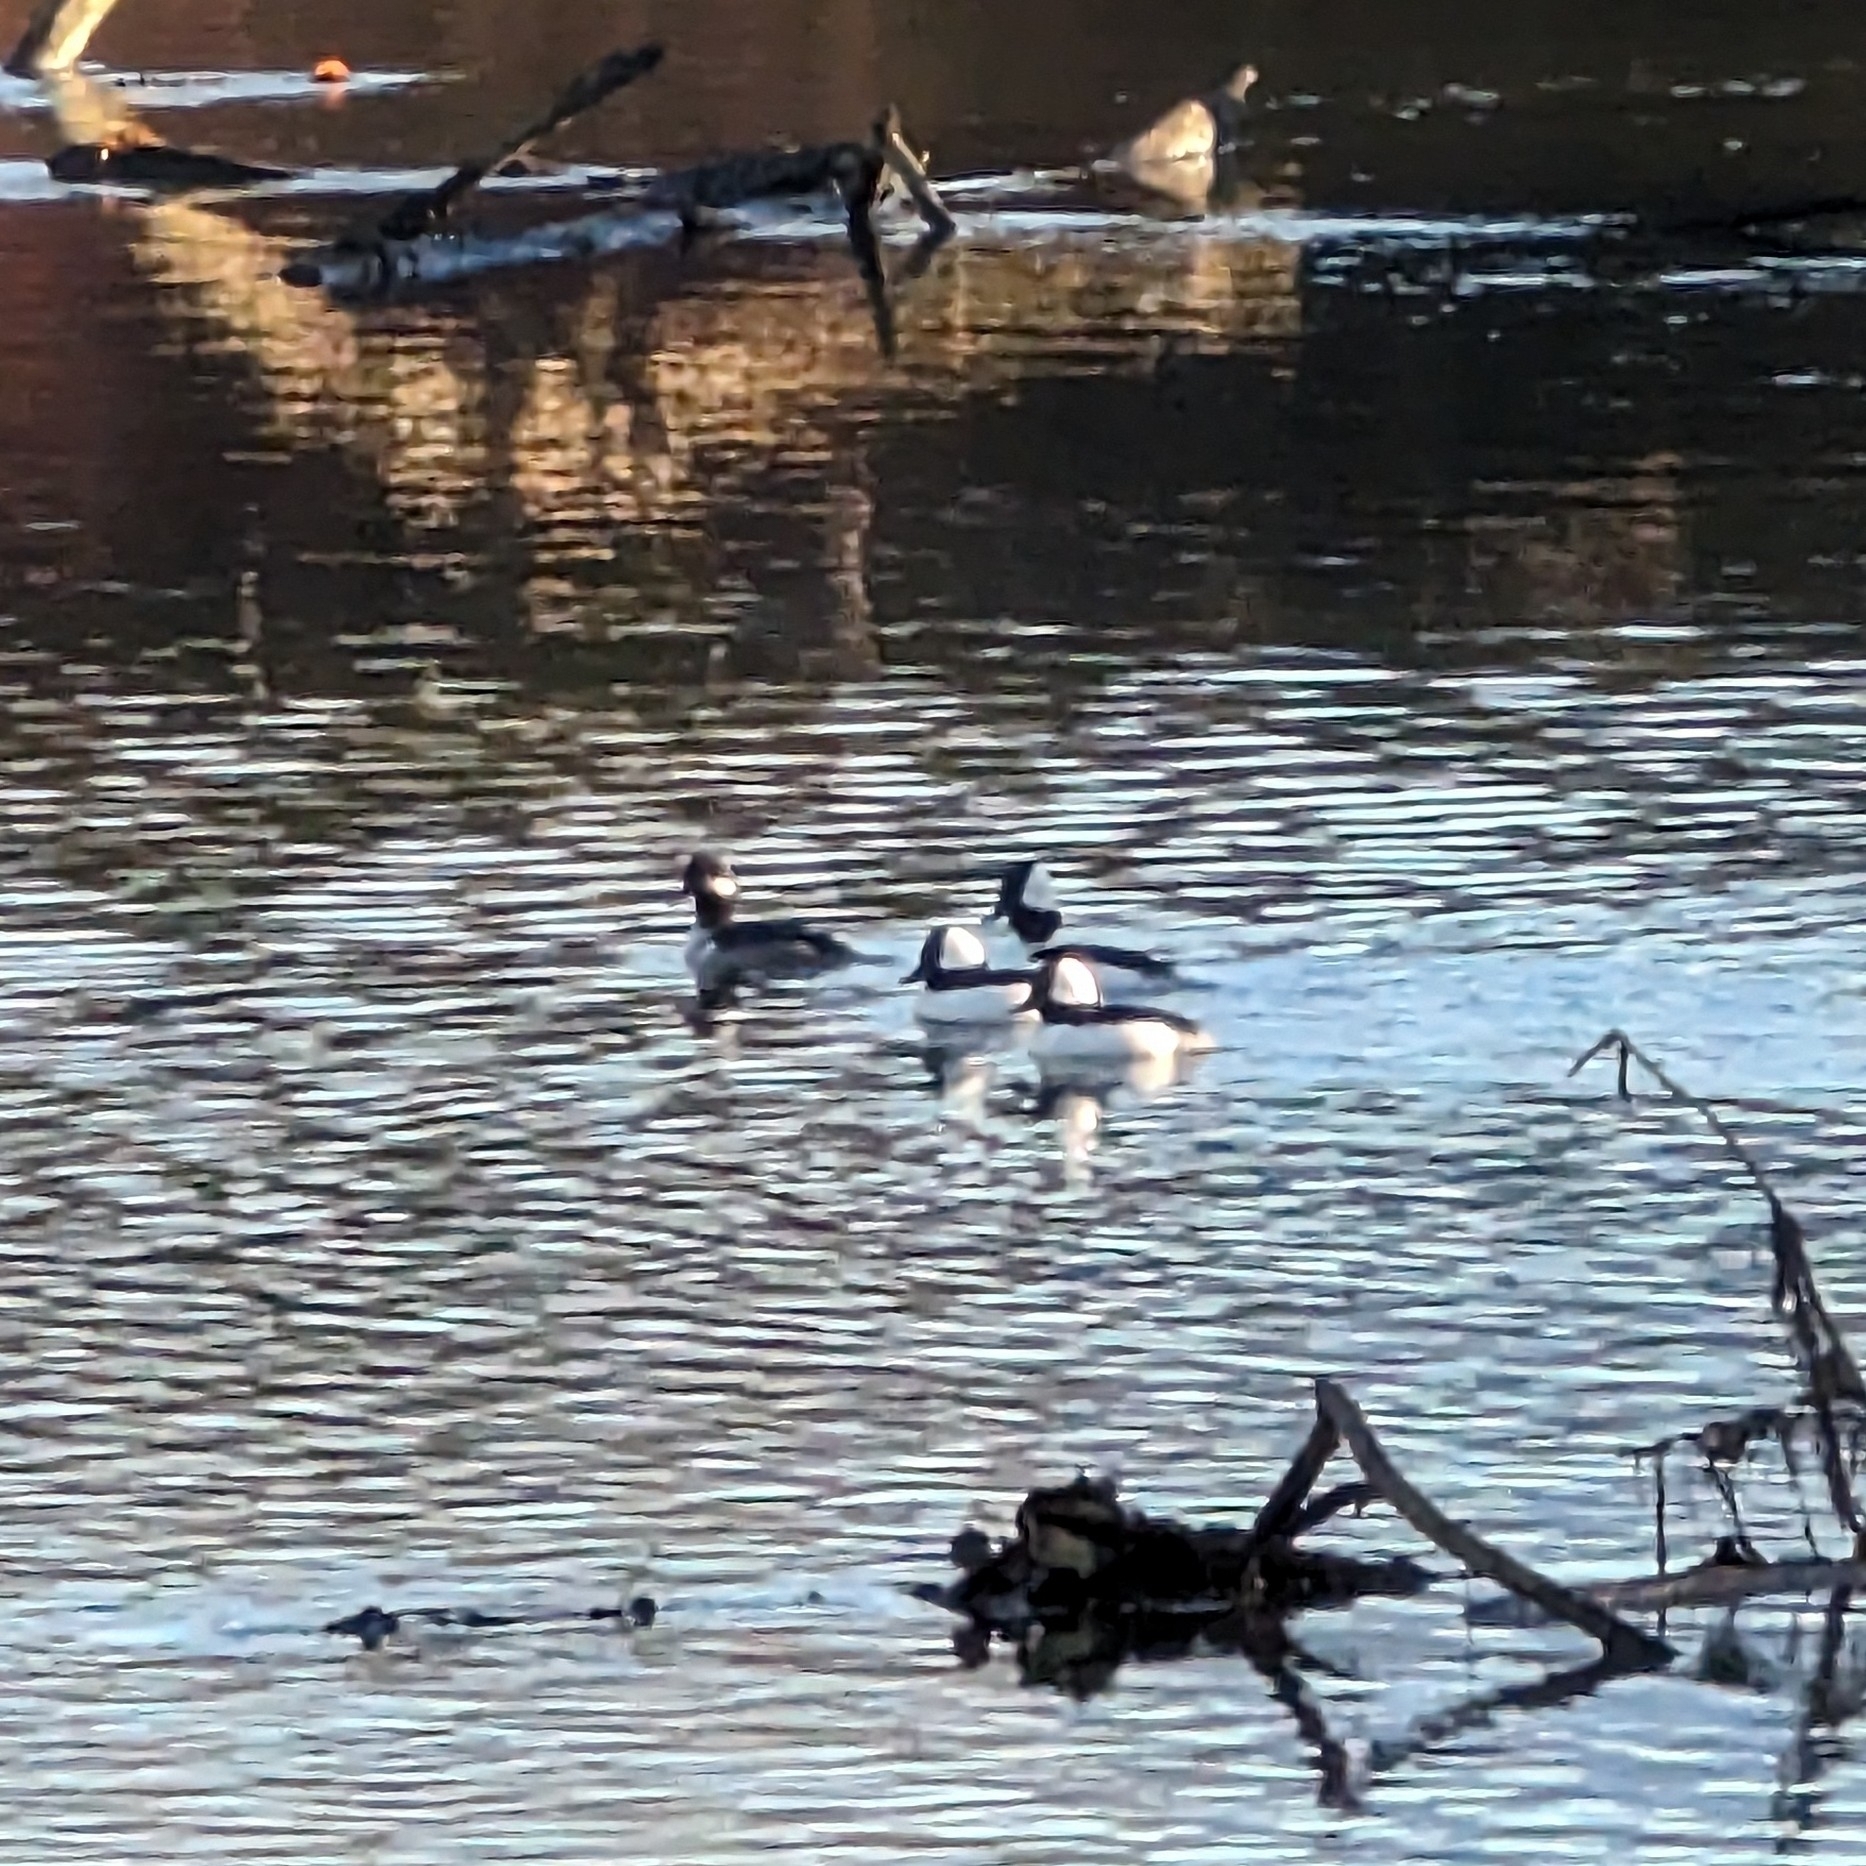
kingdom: Animalia
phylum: Chordata
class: Aves
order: Anseriformes
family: Anatidae
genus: Bucephala
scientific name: Bucephala albeola
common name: Bufflehead
